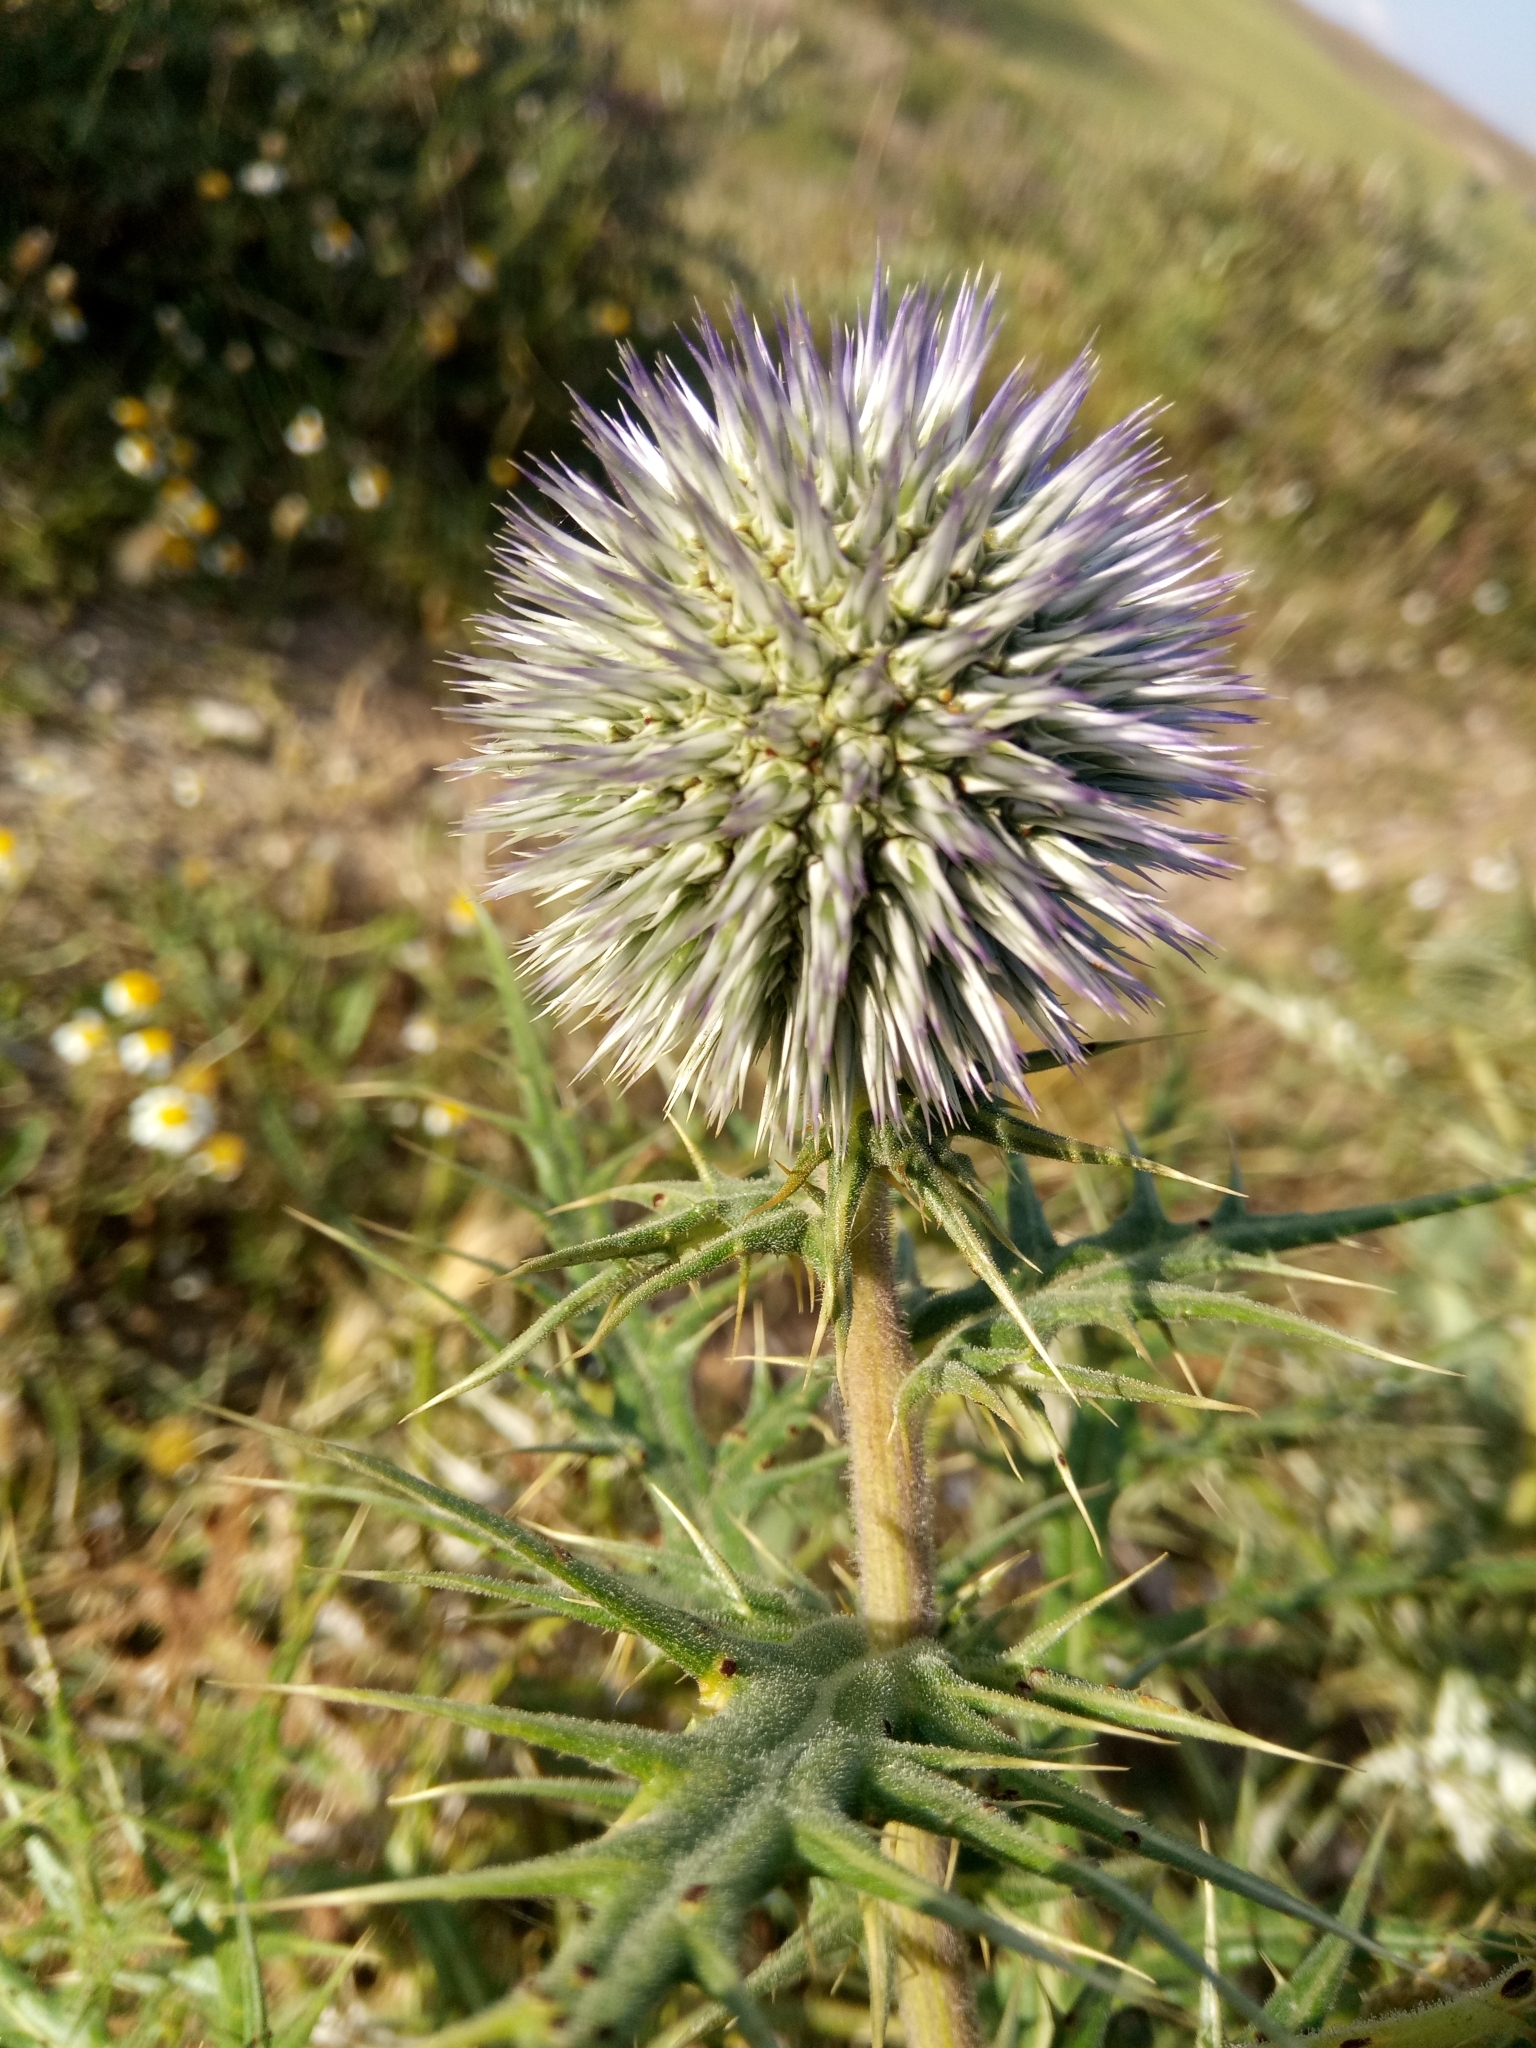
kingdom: Plantae
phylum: Tracheophyta
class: Magnoliopsida
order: Asterales
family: Asteraceae
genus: Echinops
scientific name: Echinops bovei
